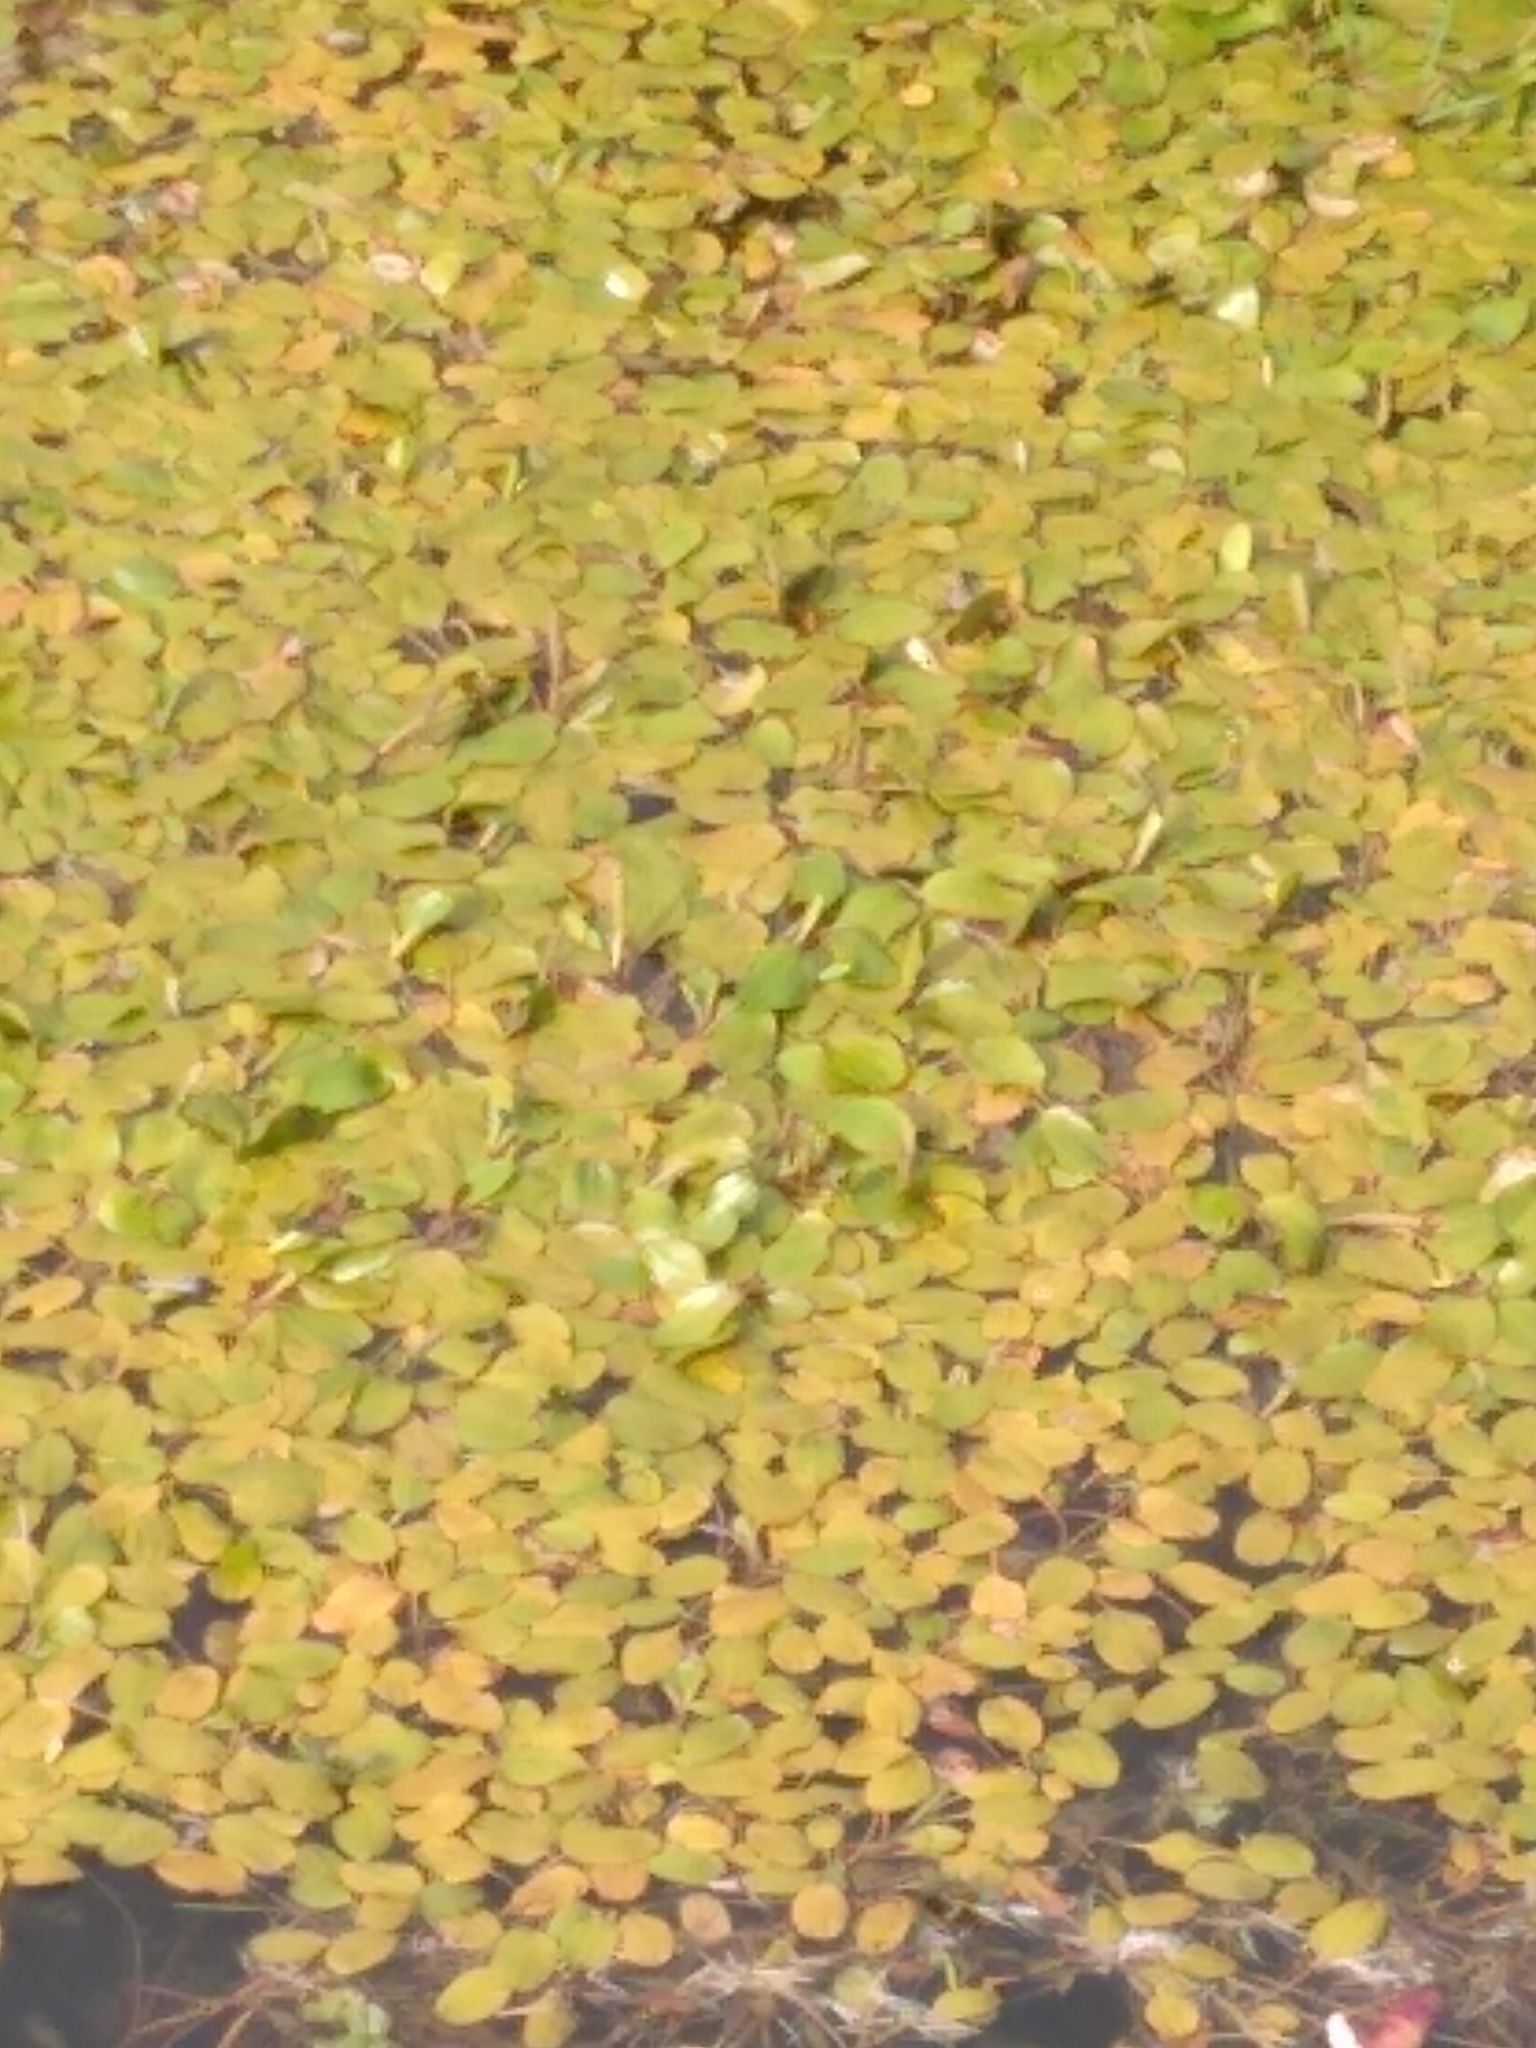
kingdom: Plantae
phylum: Tracheophyta
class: Liliopsida
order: Alismatales
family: Potamogetonaceae
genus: Potamogeton
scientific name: Potamogeton cheesemanii
